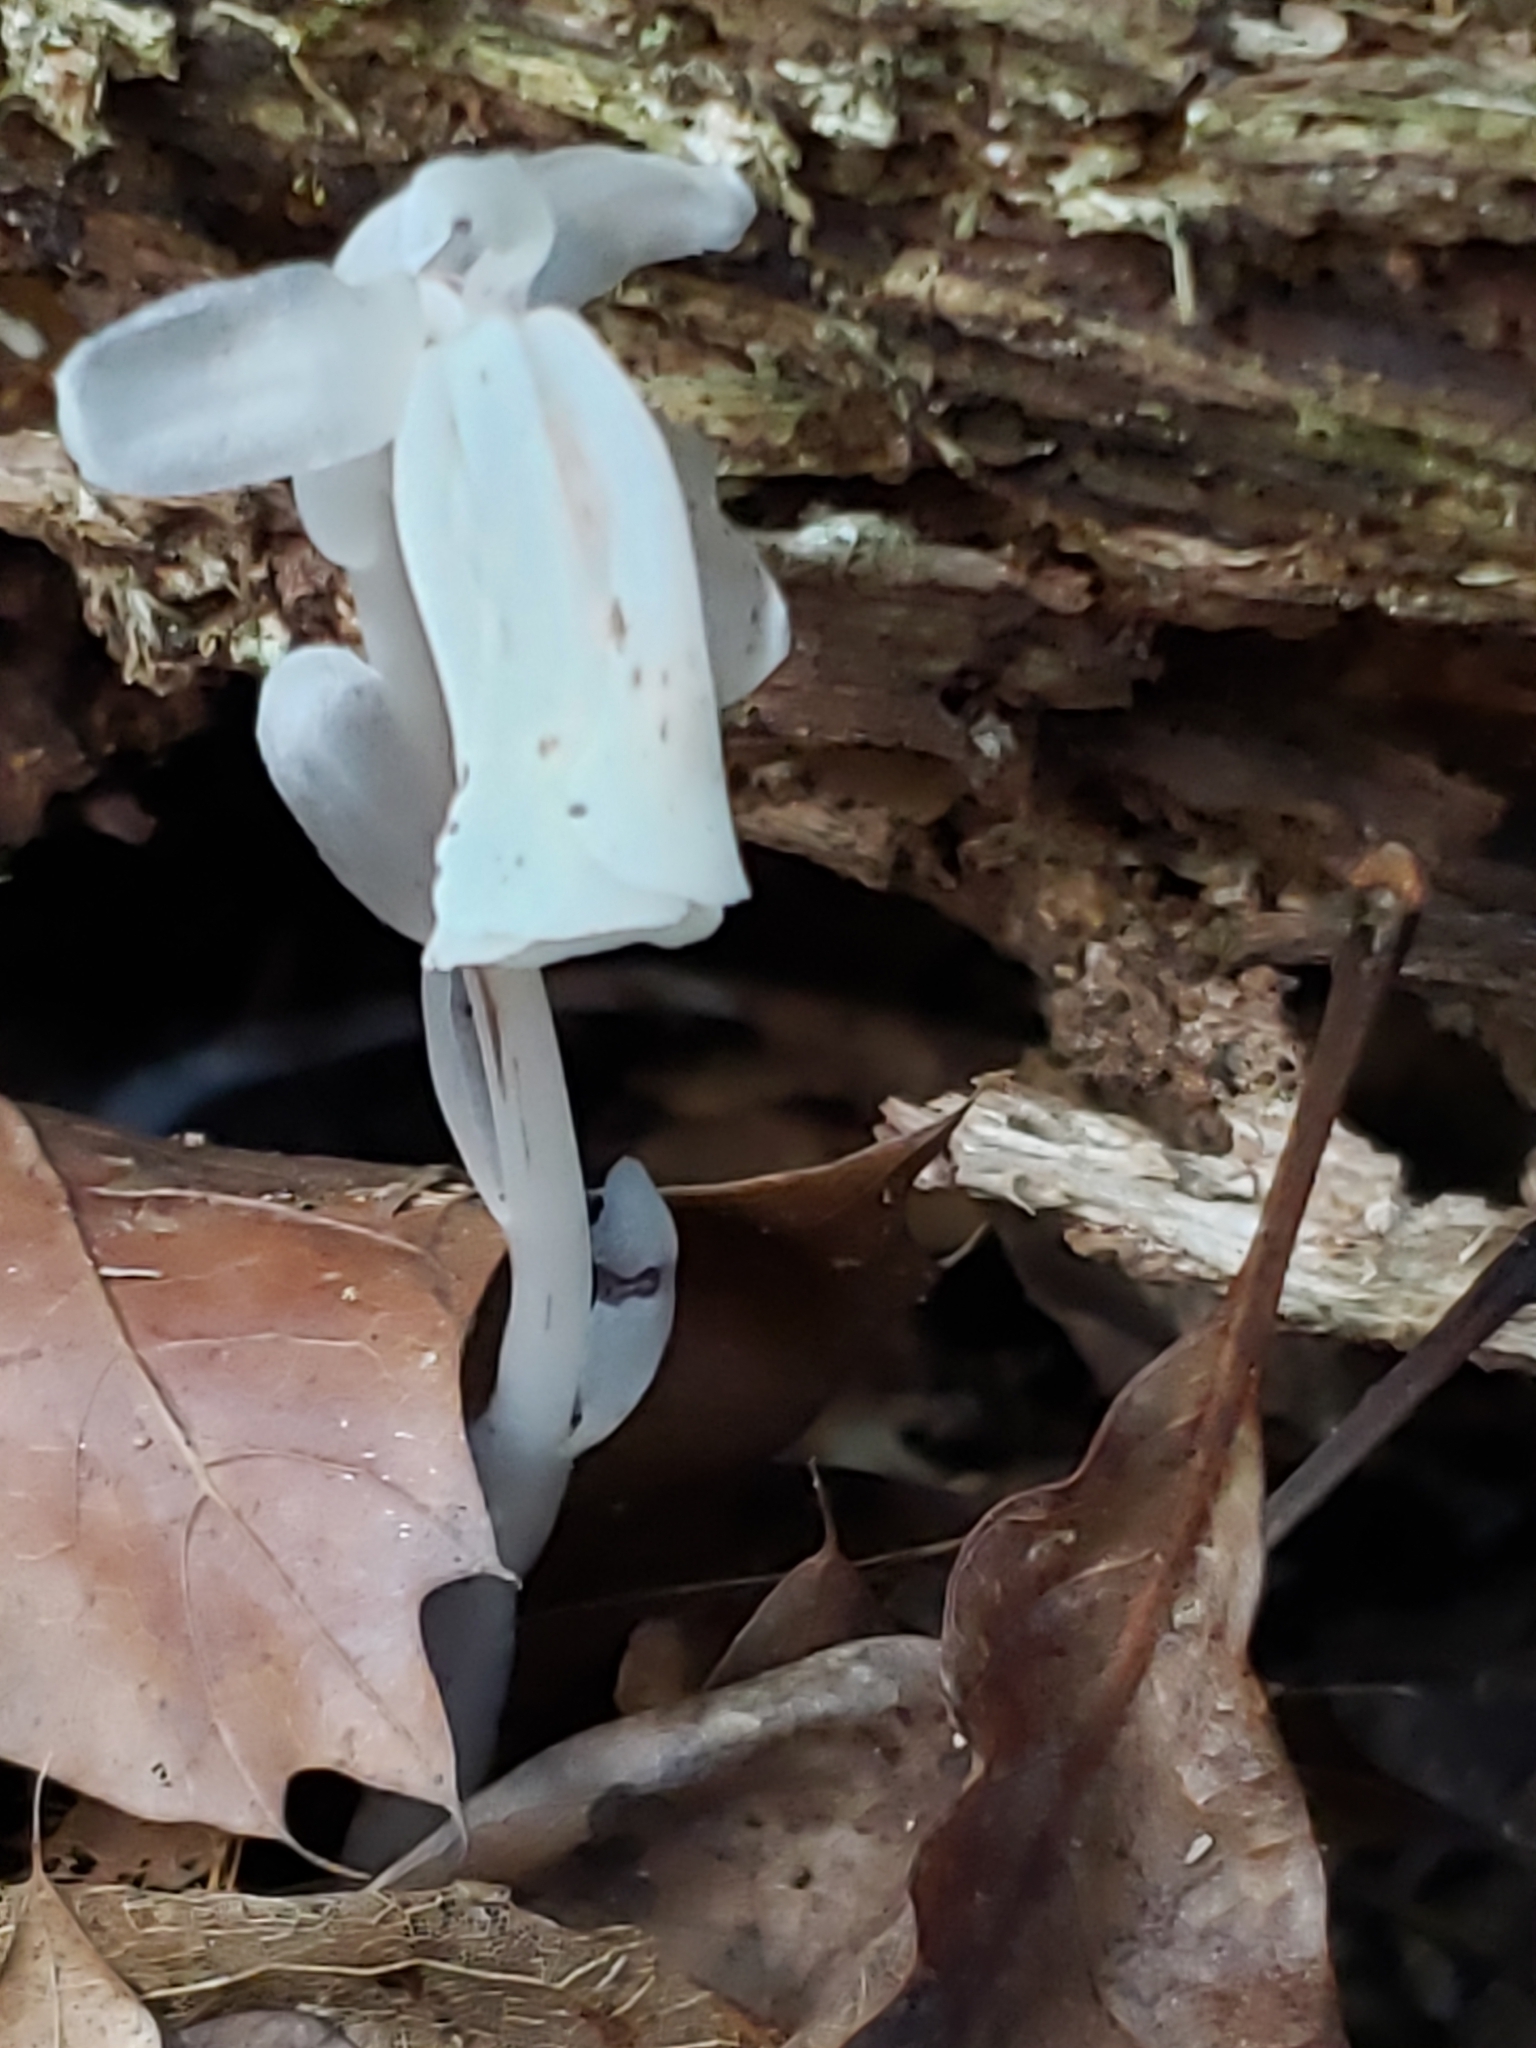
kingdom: Plantae
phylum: Tracheophyta
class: Magnoliopsida
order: Ericales
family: Ericaceae
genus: Monotropa
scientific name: Monotropa uniflora
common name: Convulsion root
